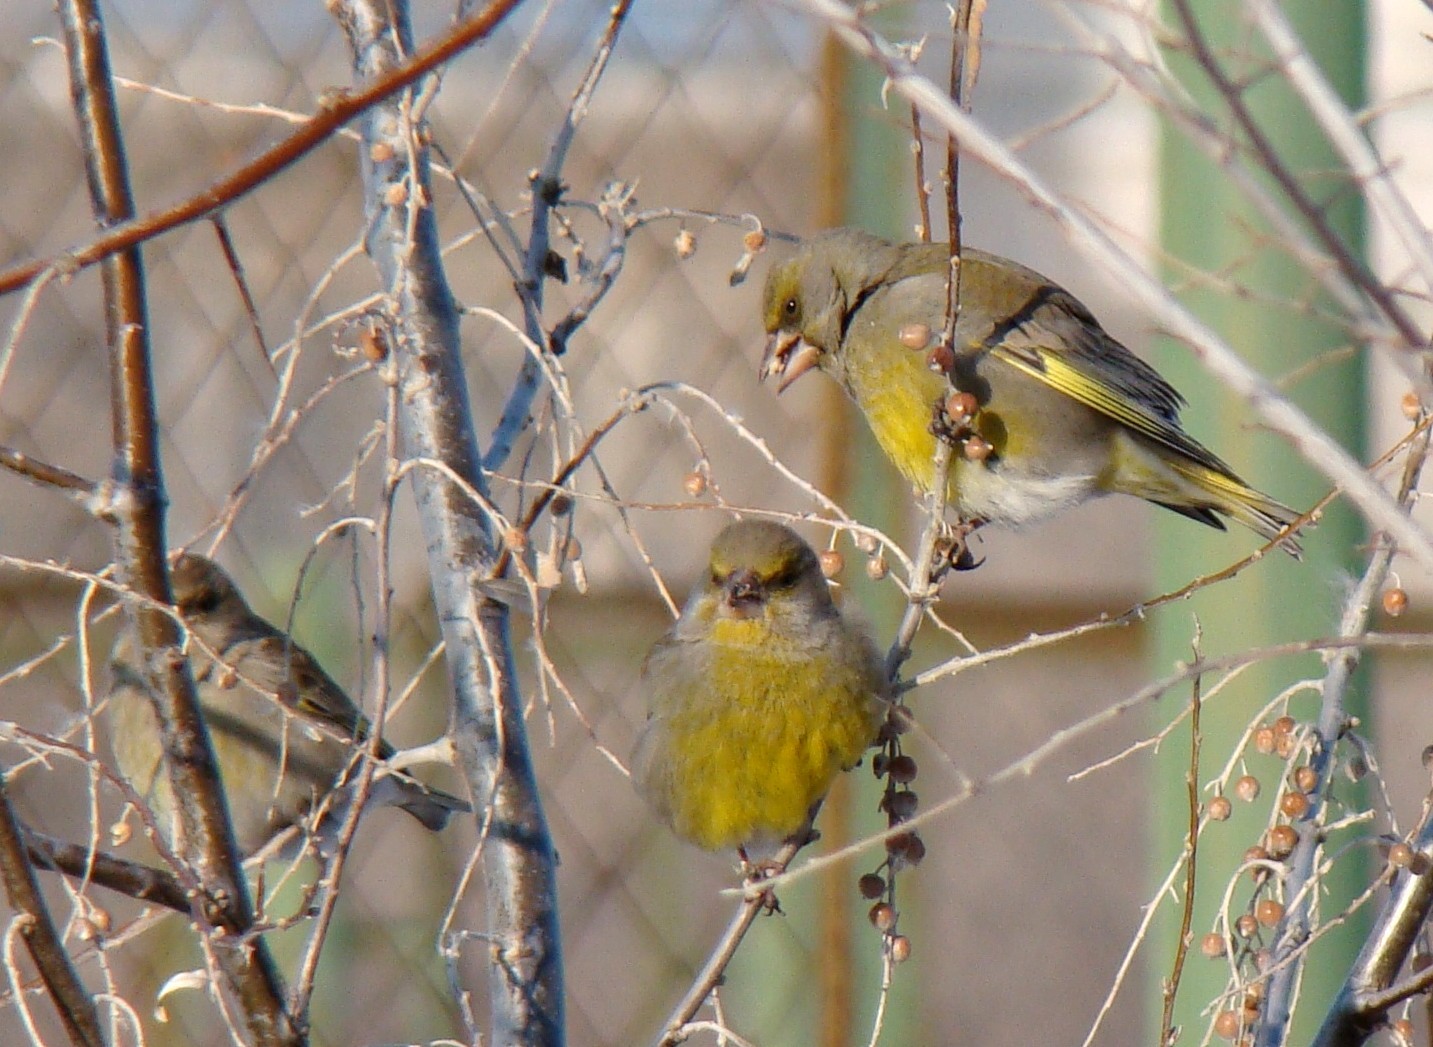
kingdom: Plantae
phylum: Tracheophyta
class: Liliopsida
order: Poales
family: Poaceae
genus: Chloris
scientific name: Chloris chloris
